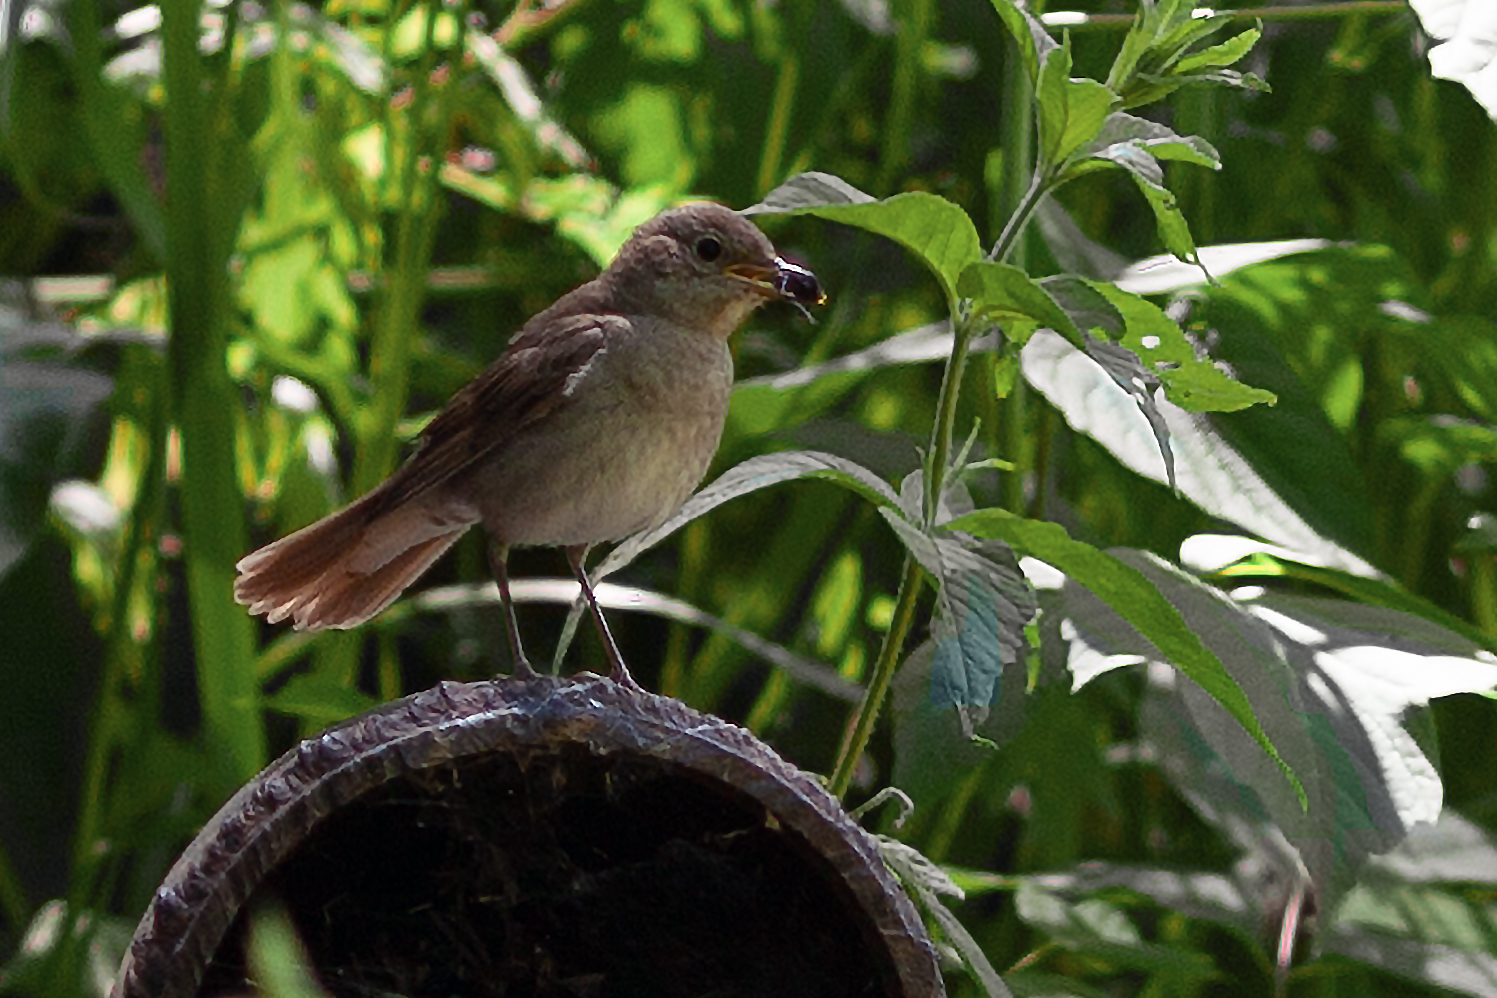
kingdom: Animalia
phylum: Chordata
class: Aves
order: Passeriformes
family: Muscicapidae
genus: Luscinia
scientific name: Luscinia luscinia
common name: Thrush nightingale
